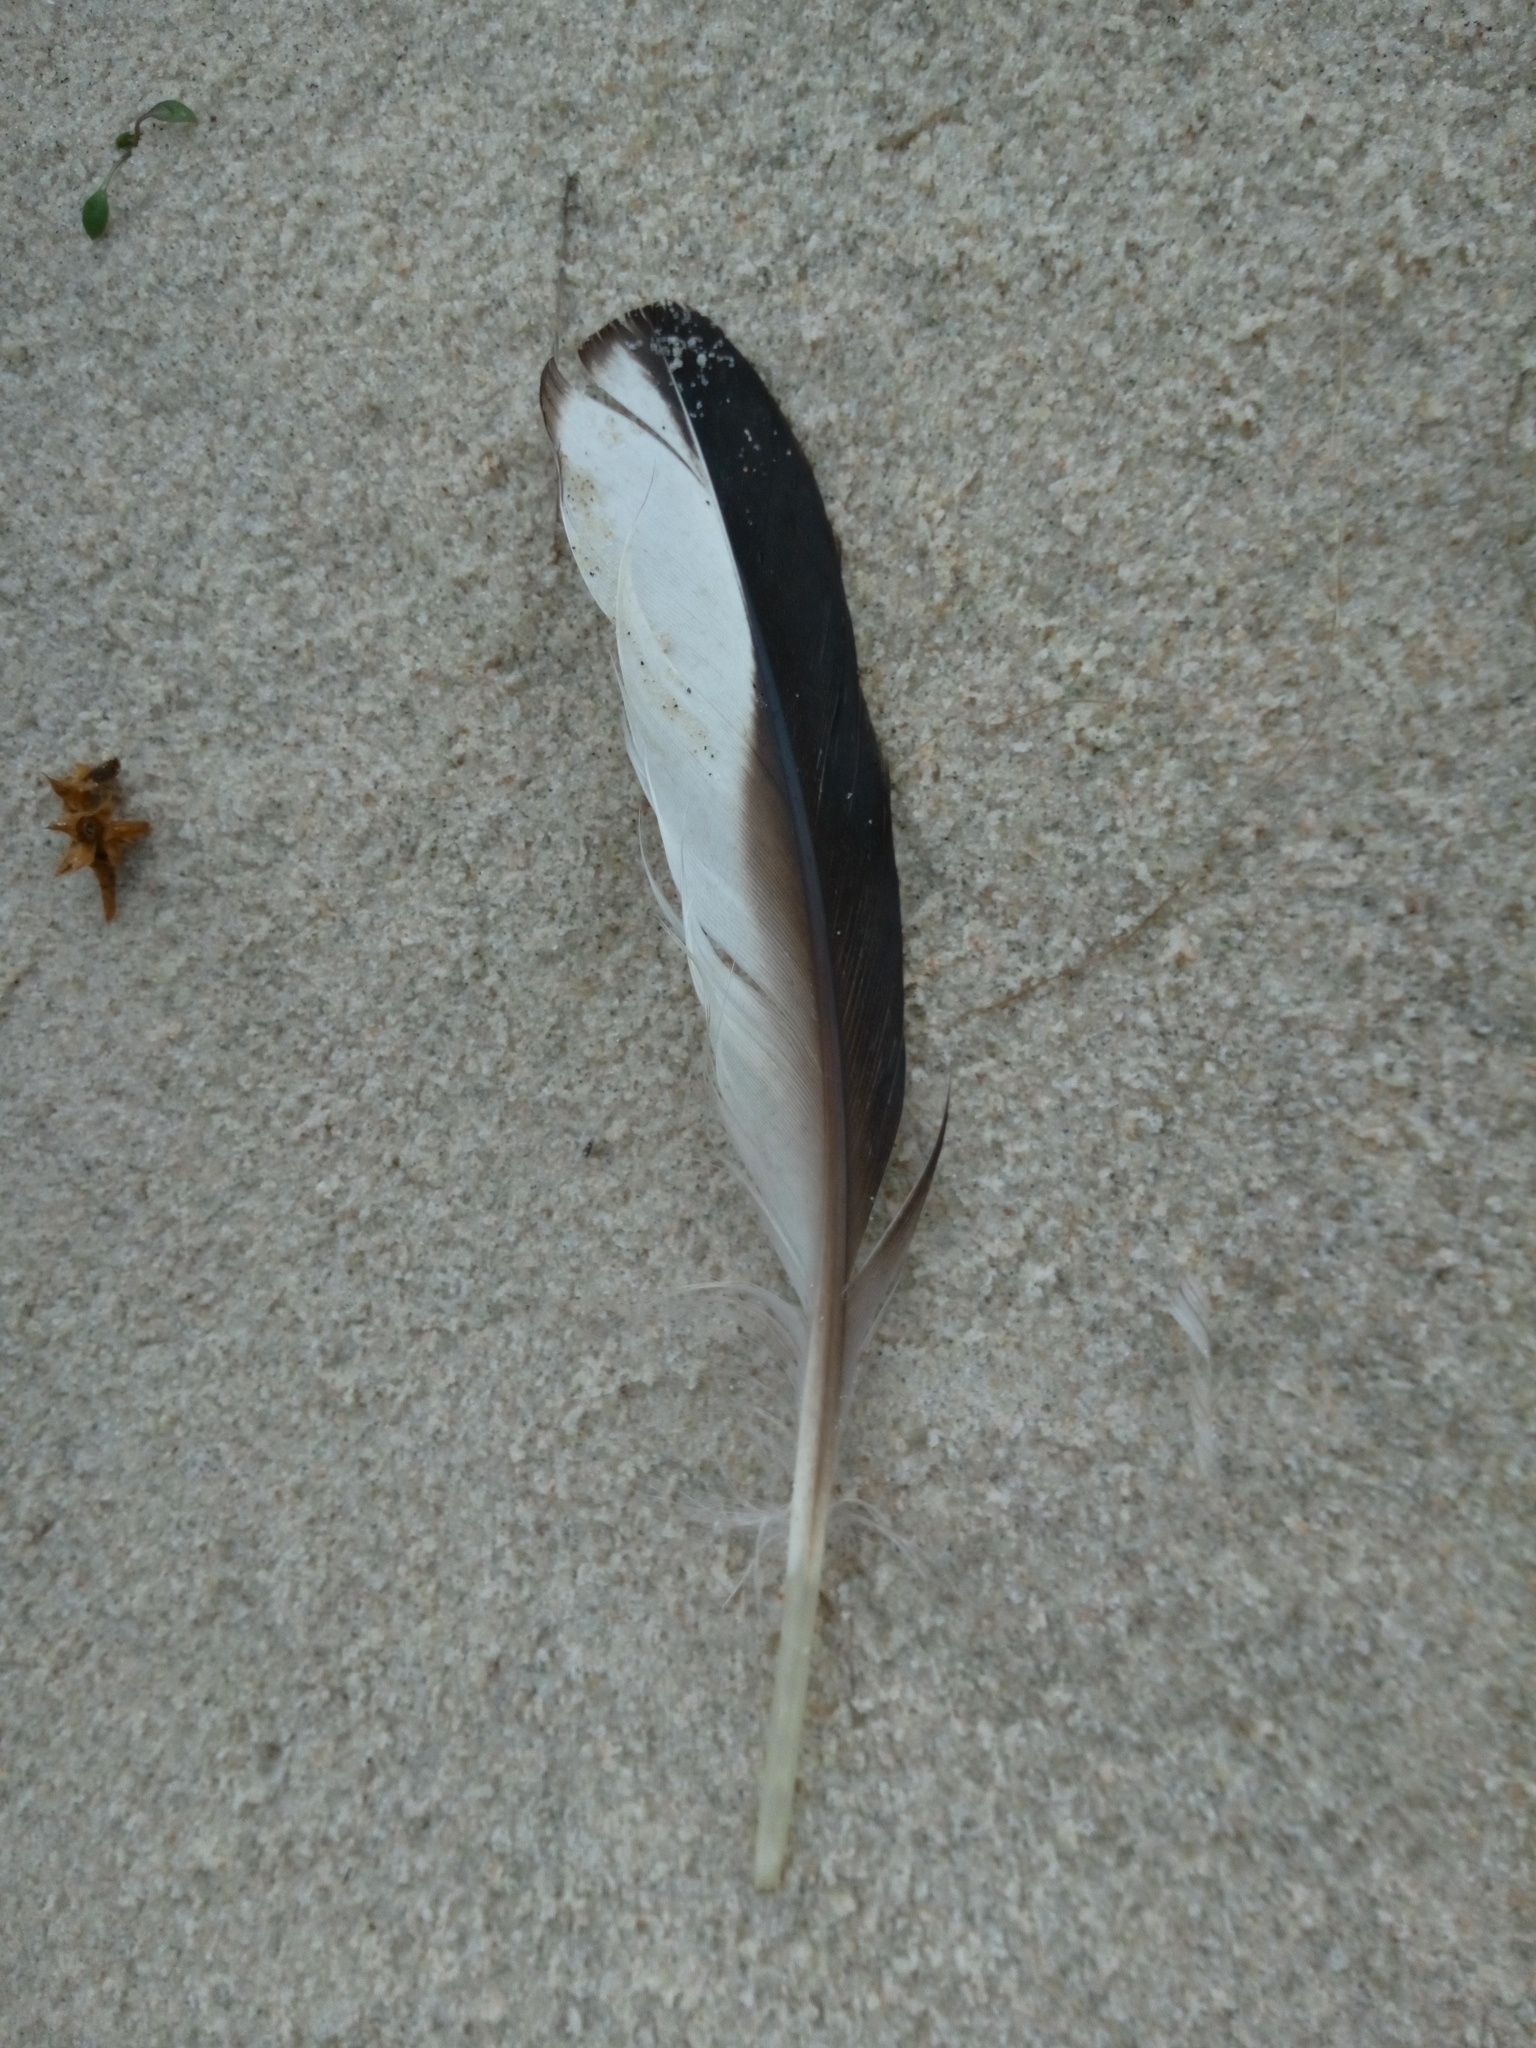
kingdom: Animalia
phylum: Chordata
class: Aves
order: Anseriformes
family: Anatidae
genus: Melanitta
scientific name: Melanitta fusca
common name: Velvet scoter
